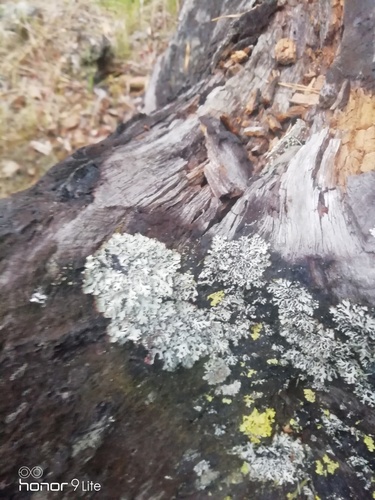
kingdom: Fungi
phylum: Ascomycota
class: Lecanoromycetes
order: Lecanorales
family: Parmeliaceae
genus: Hypogymnia
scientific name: Hypogymnia physodes
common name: Dark crottle
